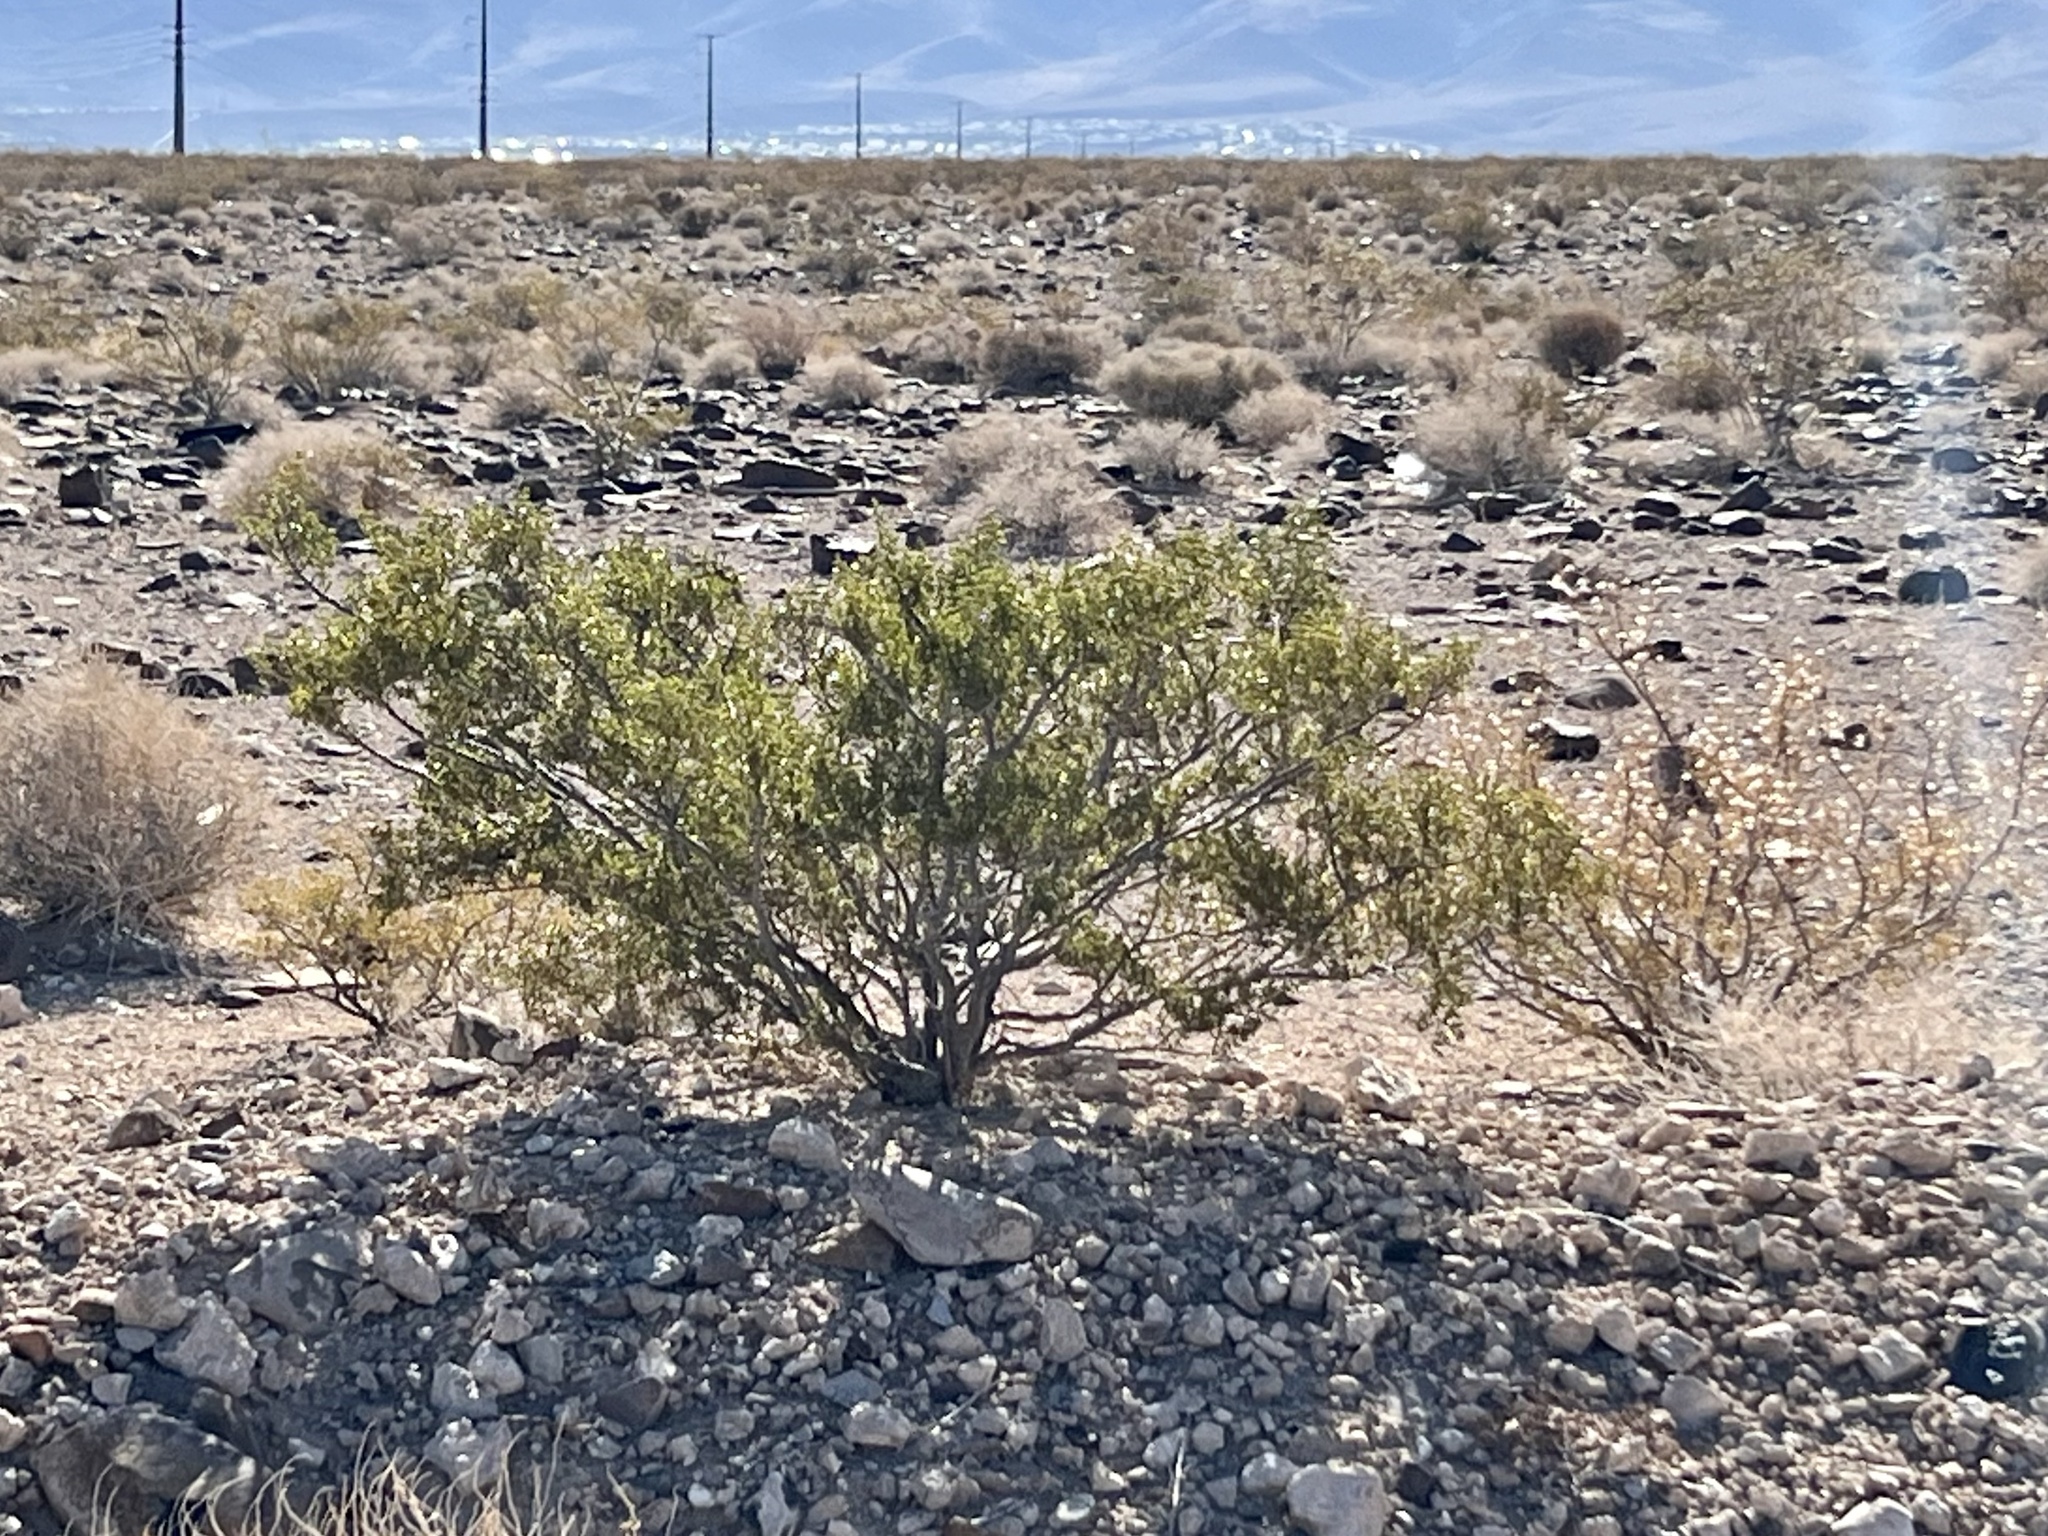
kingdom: Plantae
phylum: Tracheophyta
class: Magnoliopsida
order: Zygophyllales
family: Zygophyllaceae
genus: Larrea
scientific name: Larrea tridentata
